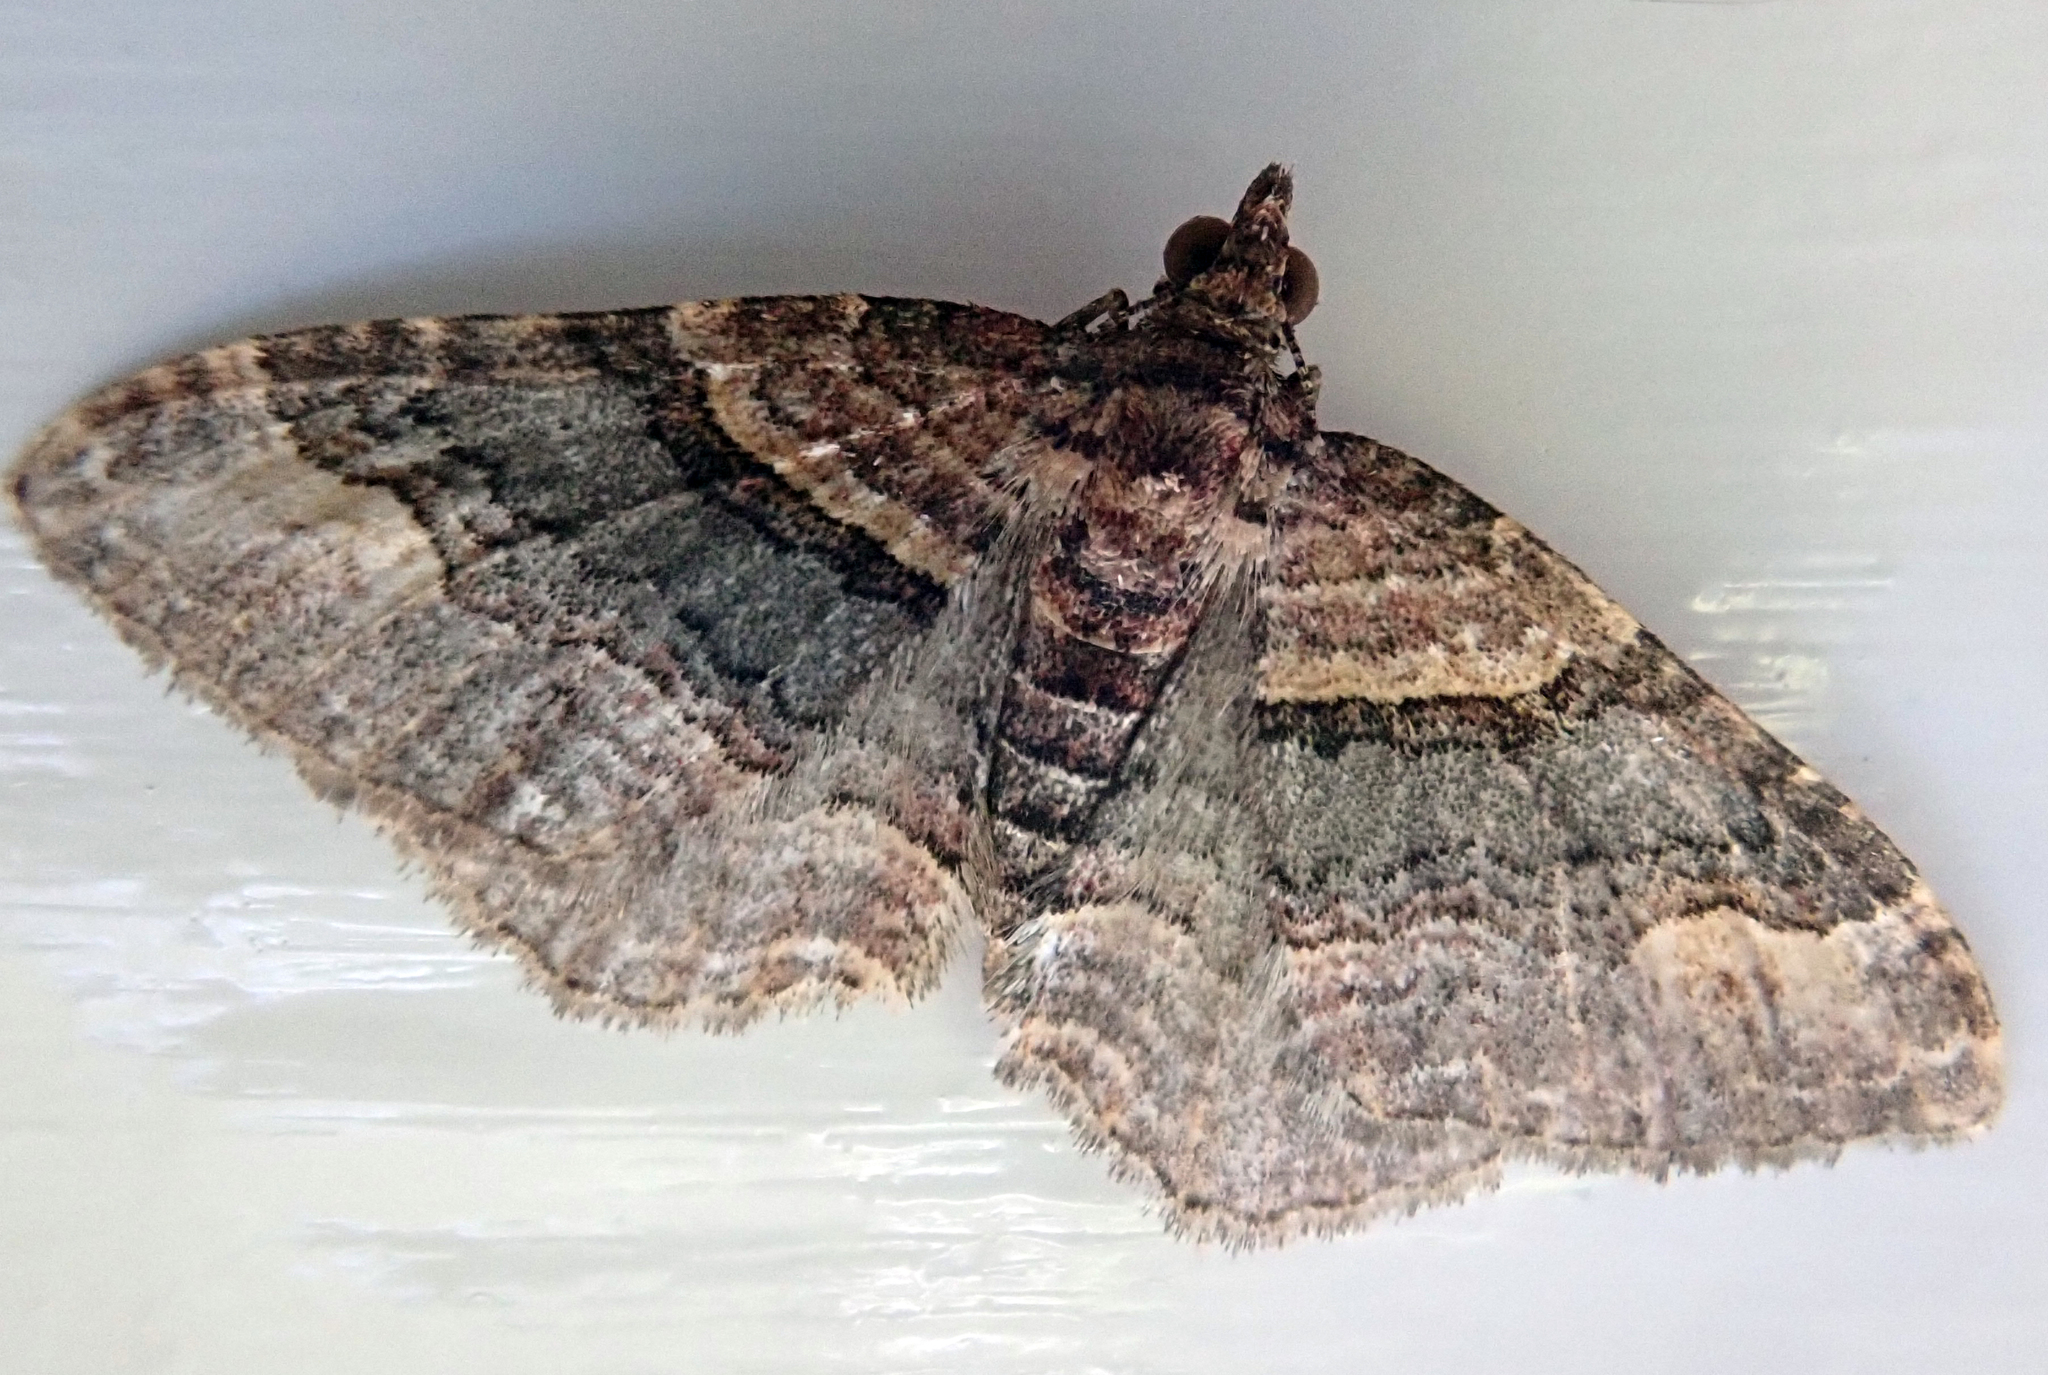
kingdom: Animalia
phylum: Arthropoda
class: Insecta
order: Lepidoptera
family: Geometridae
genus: Epyaxa
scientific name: Epyaxa lucidata
